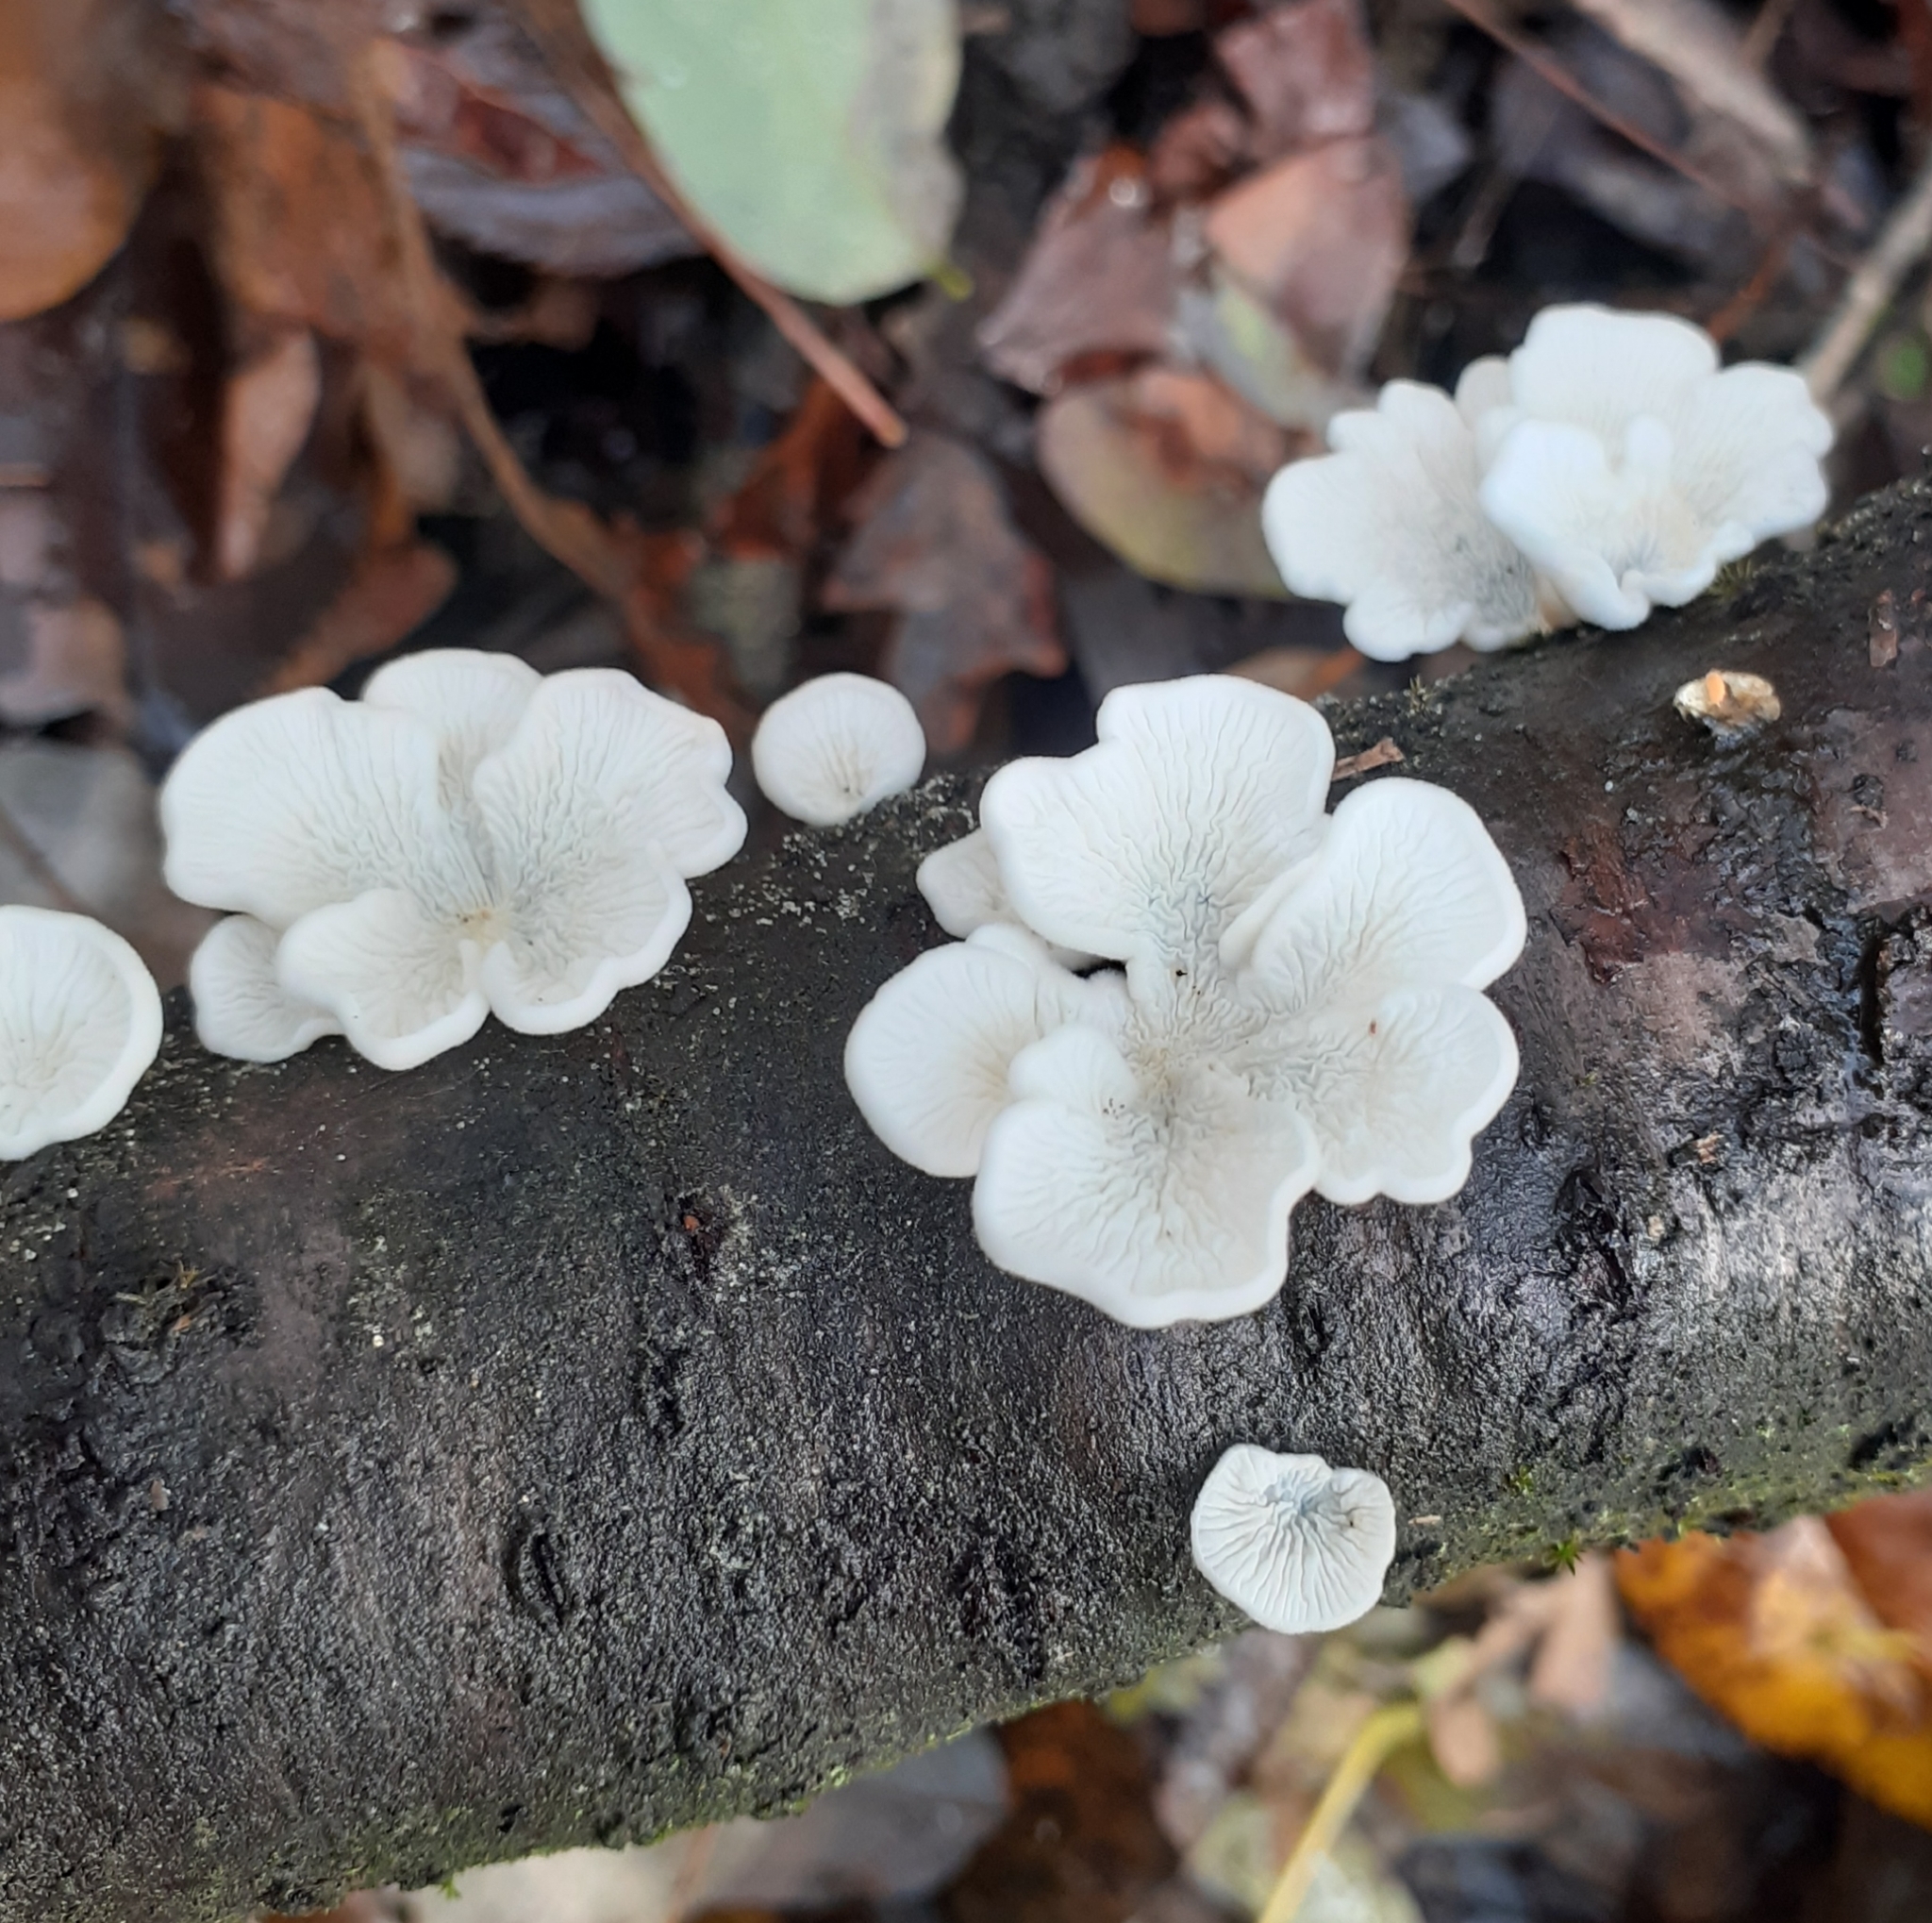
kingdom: Fungi
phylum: Basidiomycota
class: Agaricomycetes
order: Amylocorticiales
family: Amylocorticiaceae
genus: Plicaturopsis
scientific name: Plicaturopsis crispa
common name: Crimped gill
